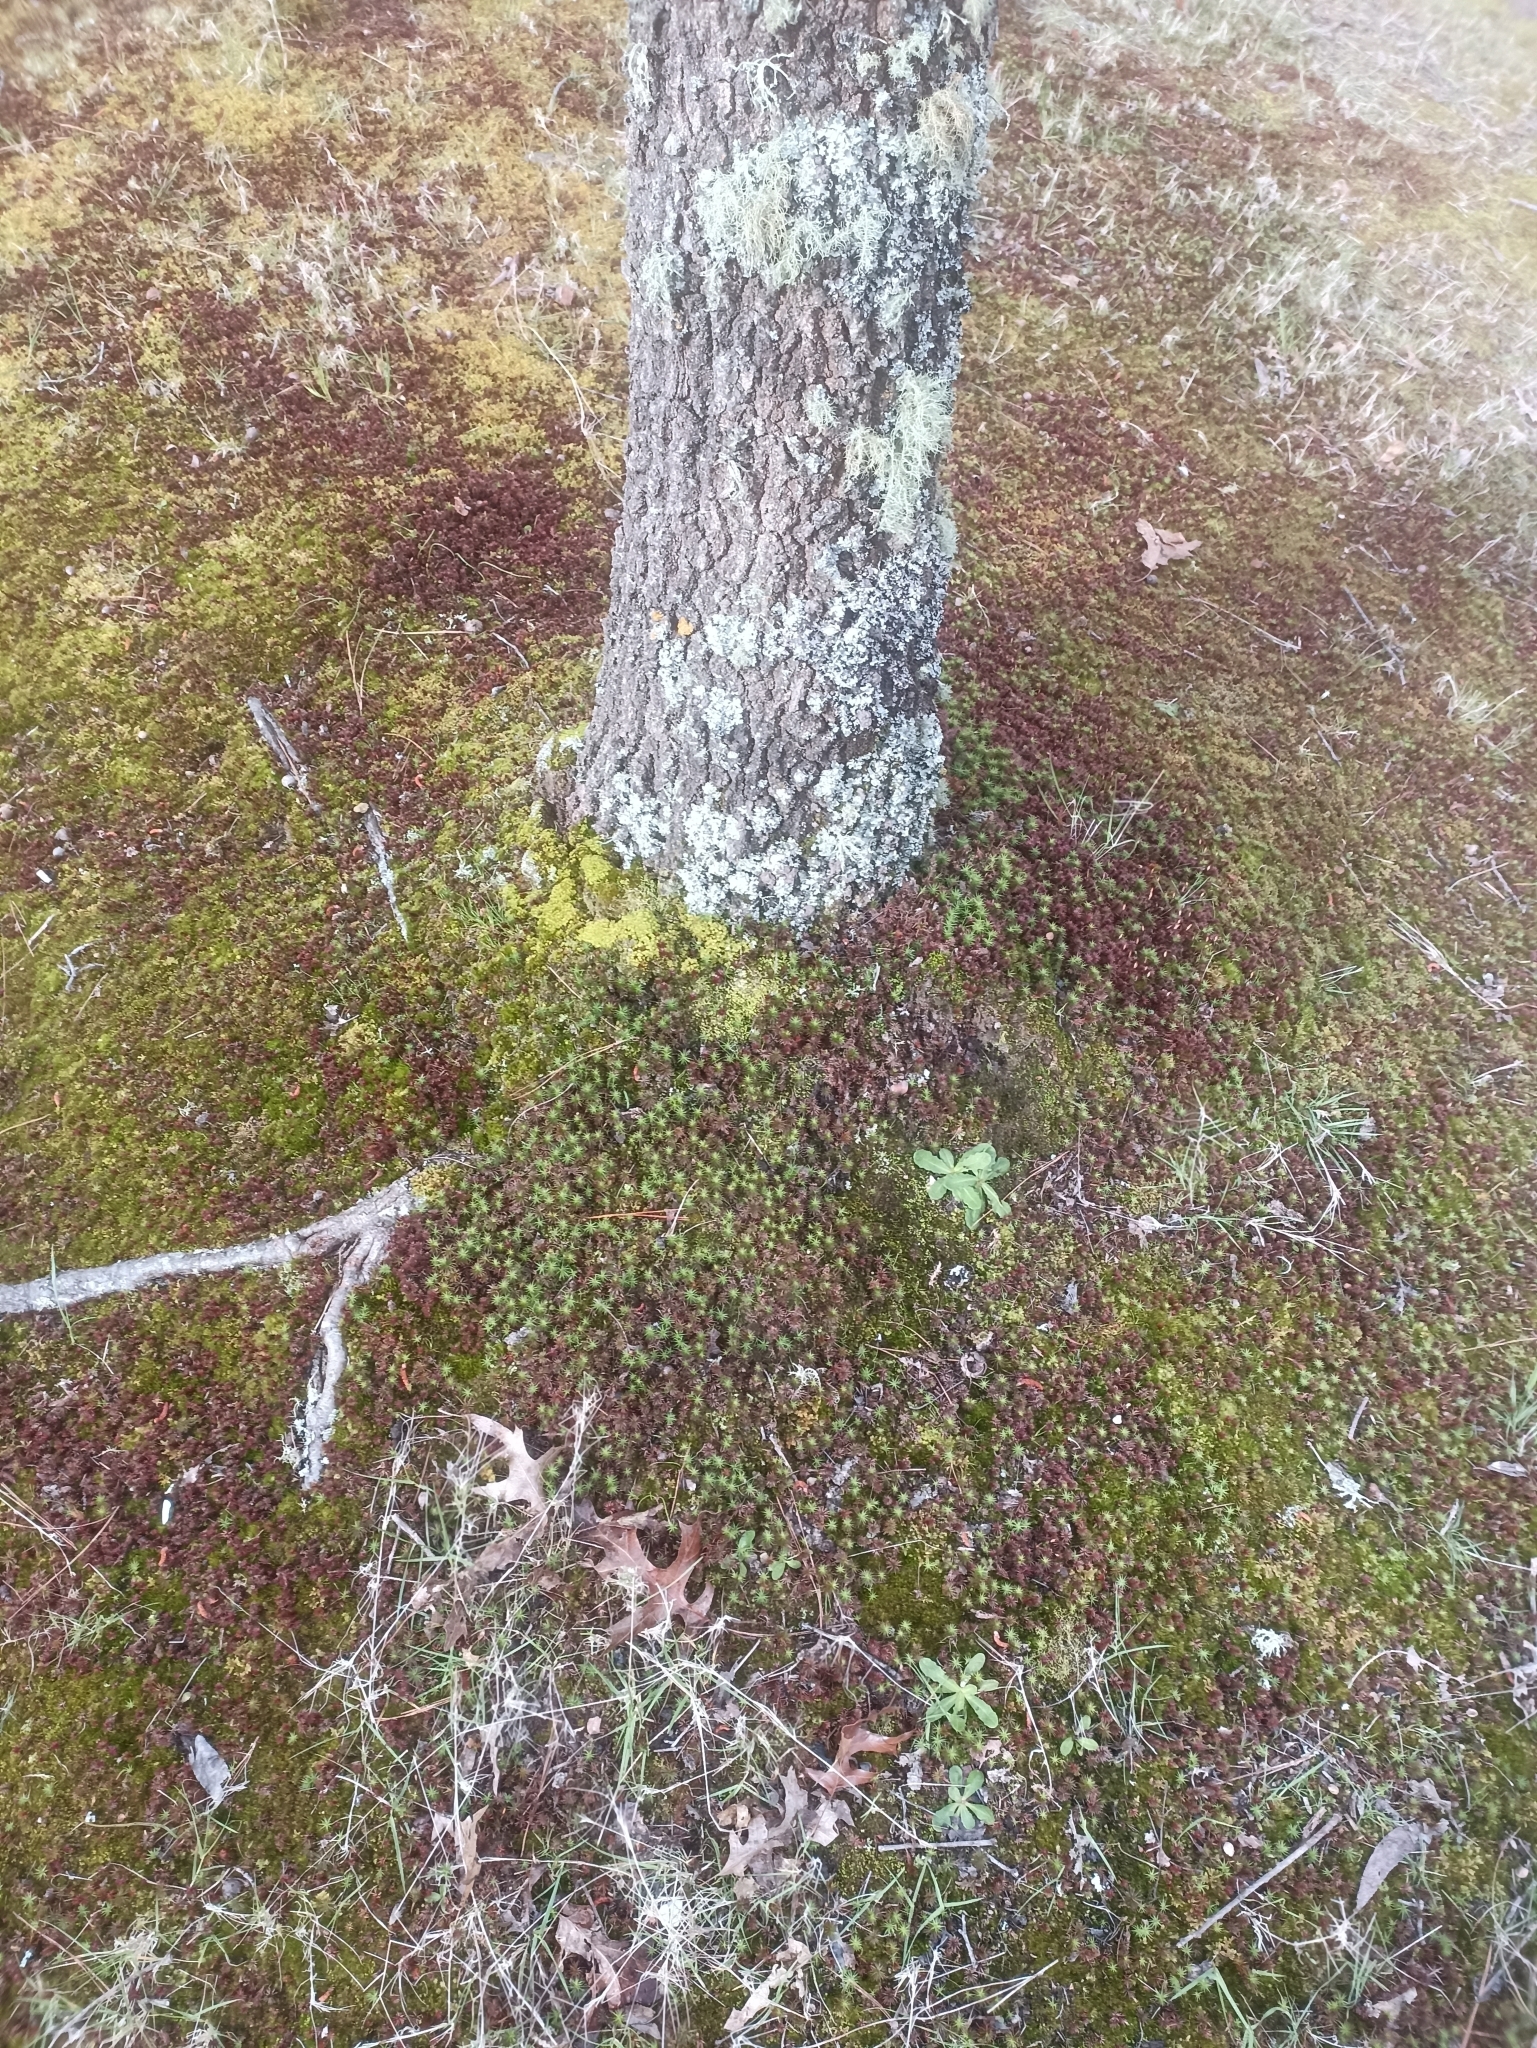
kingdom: Plantae
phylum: Bryophyta
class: Polytrichopsida
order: Polytrichales
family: Polytrichaceae
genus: Polytrichum
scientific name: Polytrichum juniperinum
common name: Juniper haircap moss
